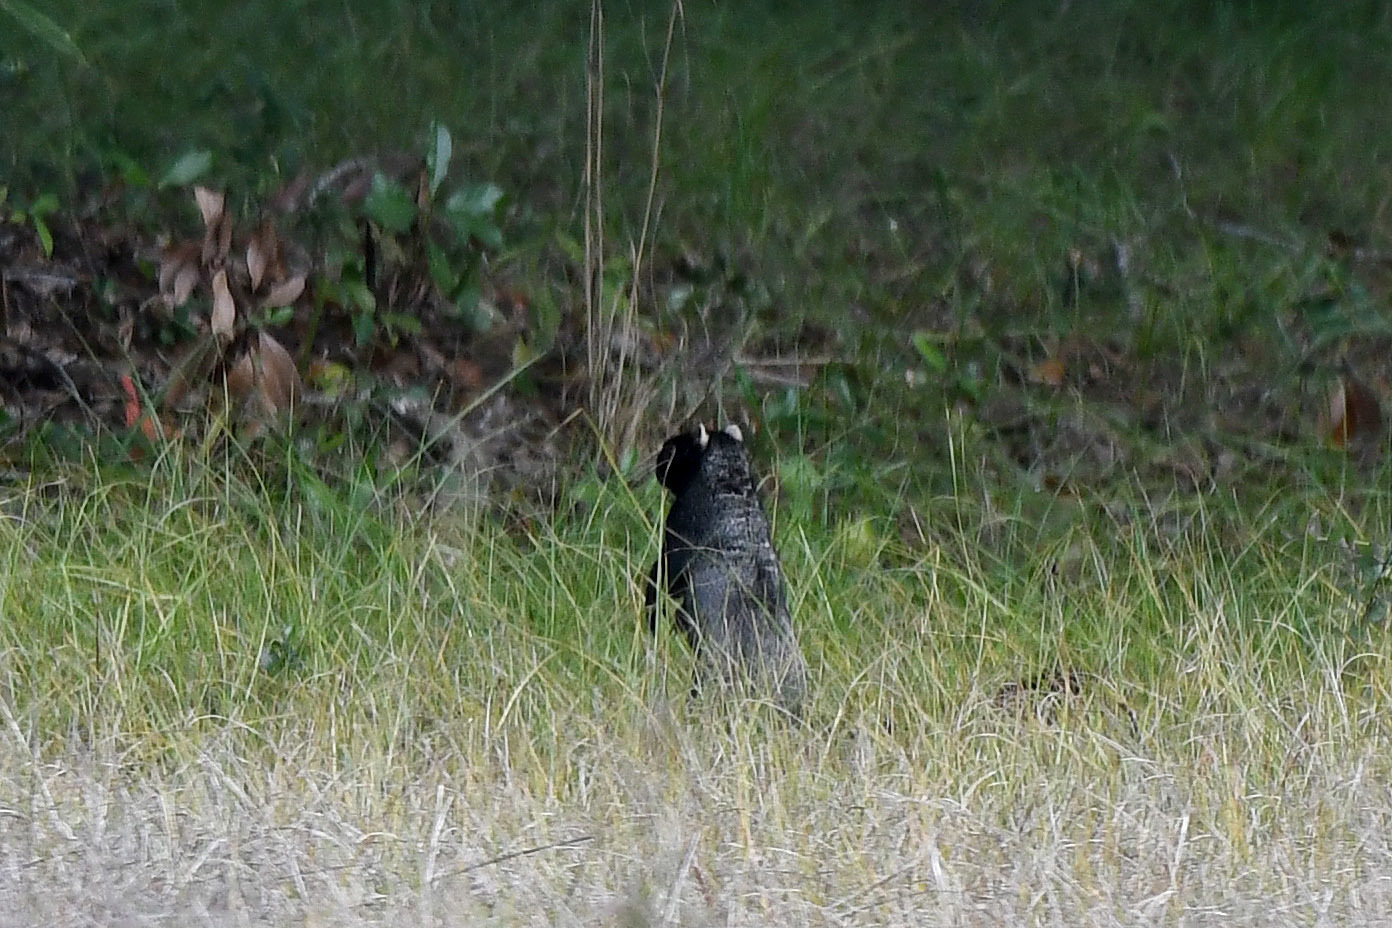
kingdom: Animalia
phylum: Chordata
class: Mammalia
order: Rodentia
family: Sciuridae
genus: Sciurus
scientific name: Sciurus niger
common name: Fox squirrel
